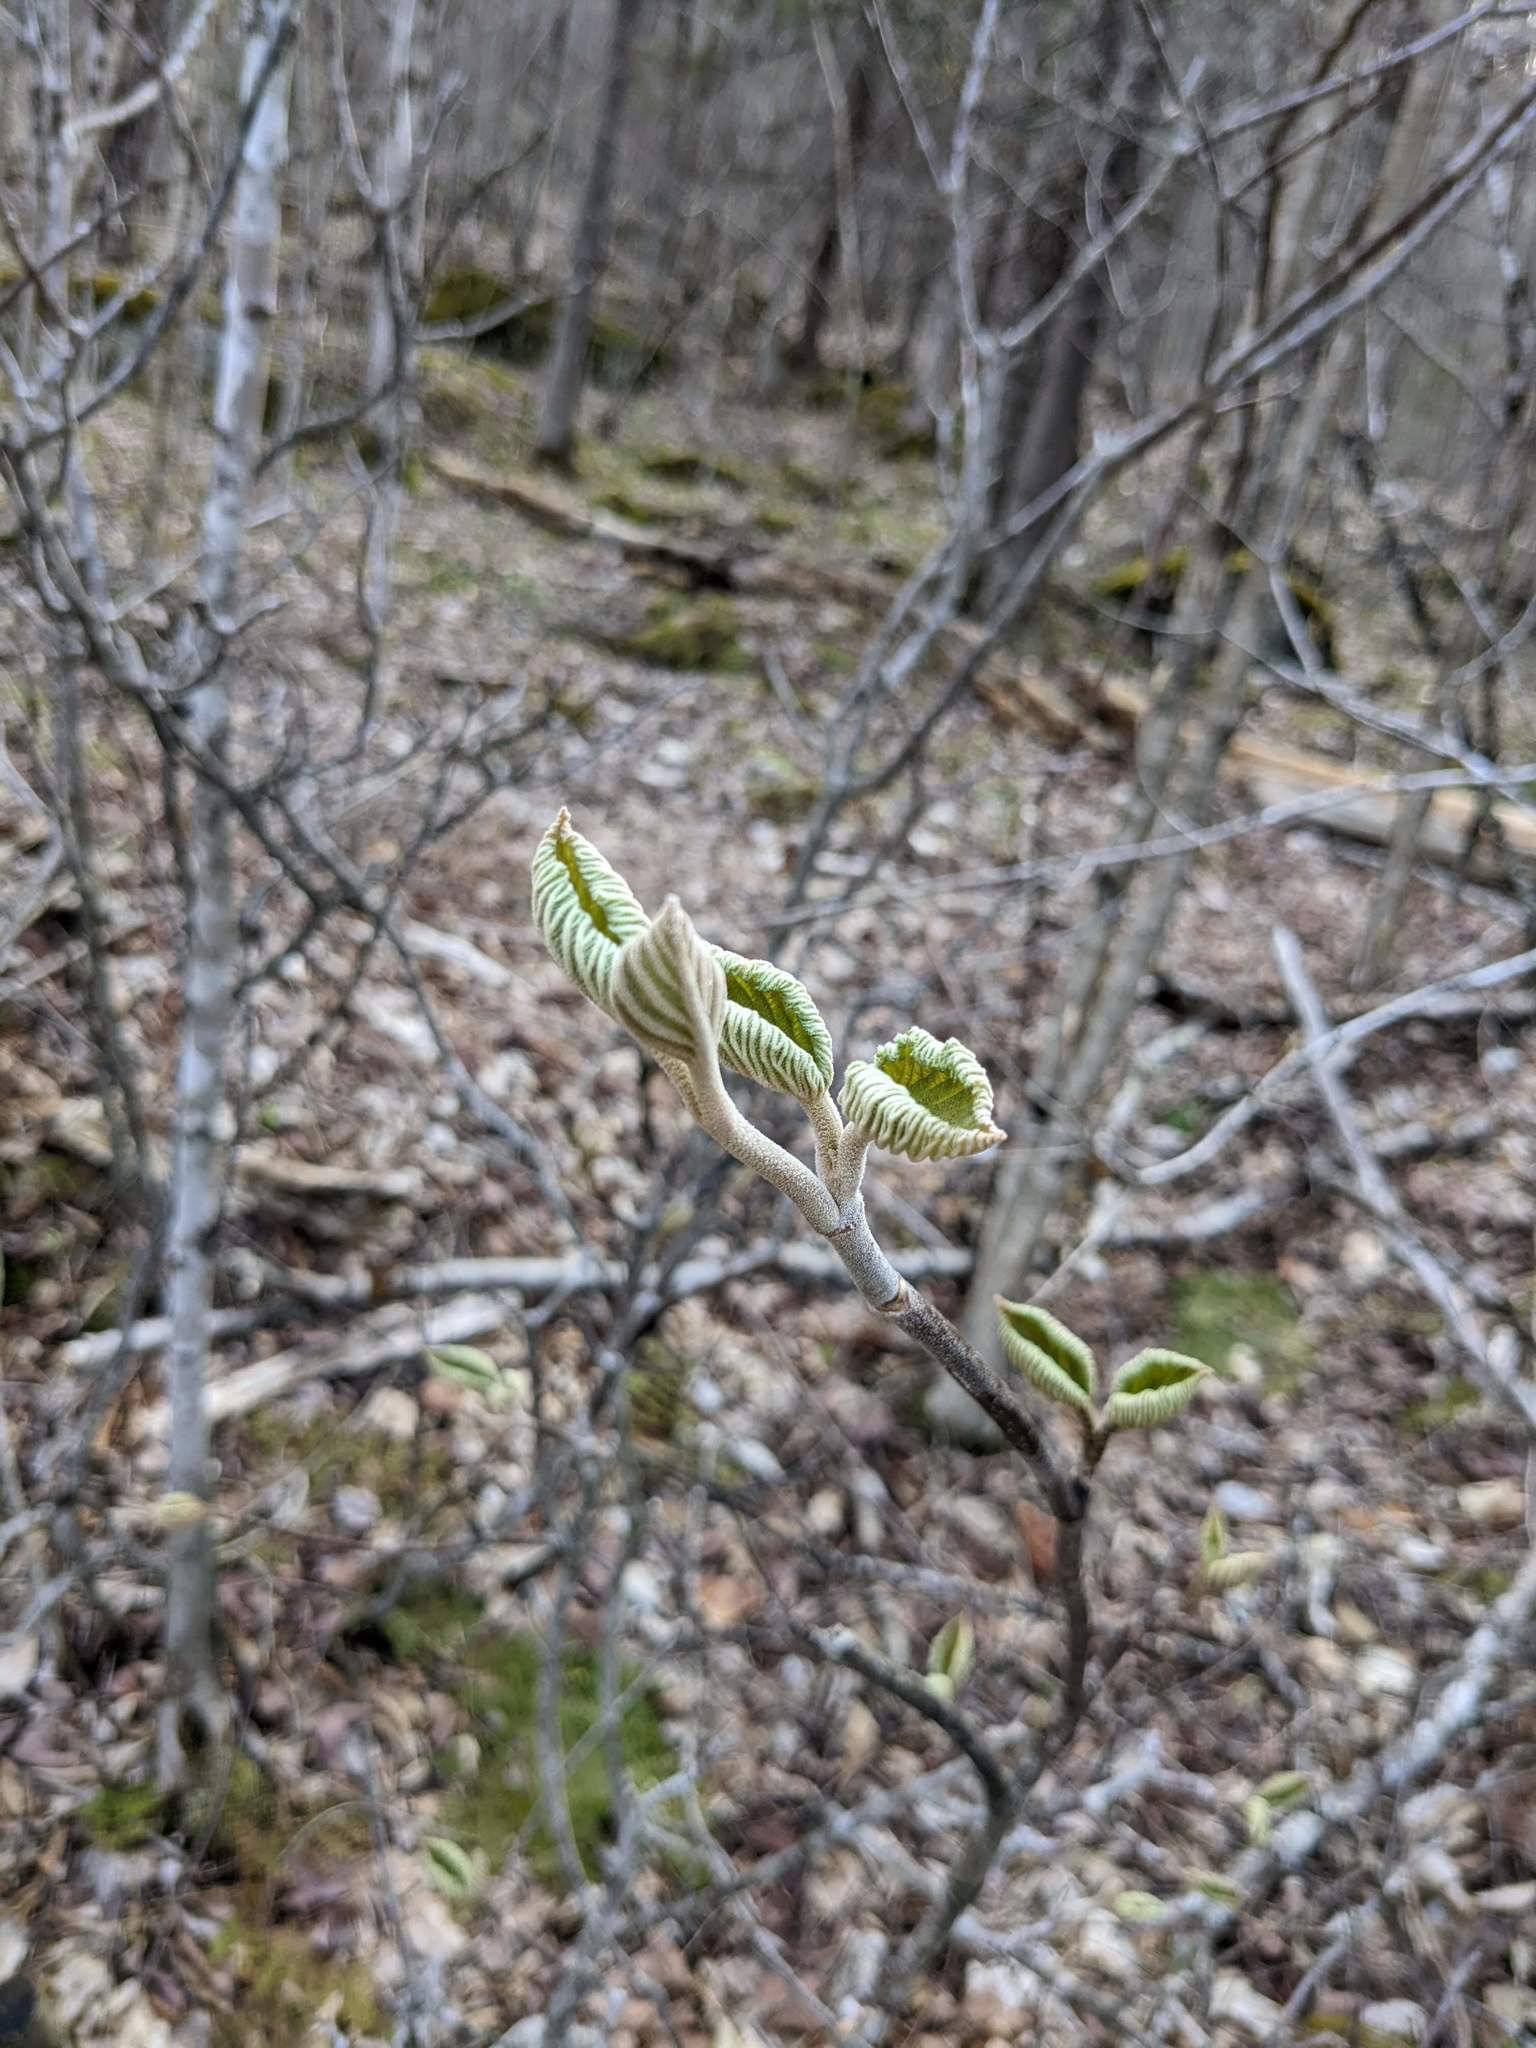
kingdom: Plantae
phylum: Tracheophyta
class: Magnoliopsida
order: Dipsacales
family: Viburnaceae
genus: Viburnum
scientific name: Viburnum lantanoides
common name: Hobblebush
